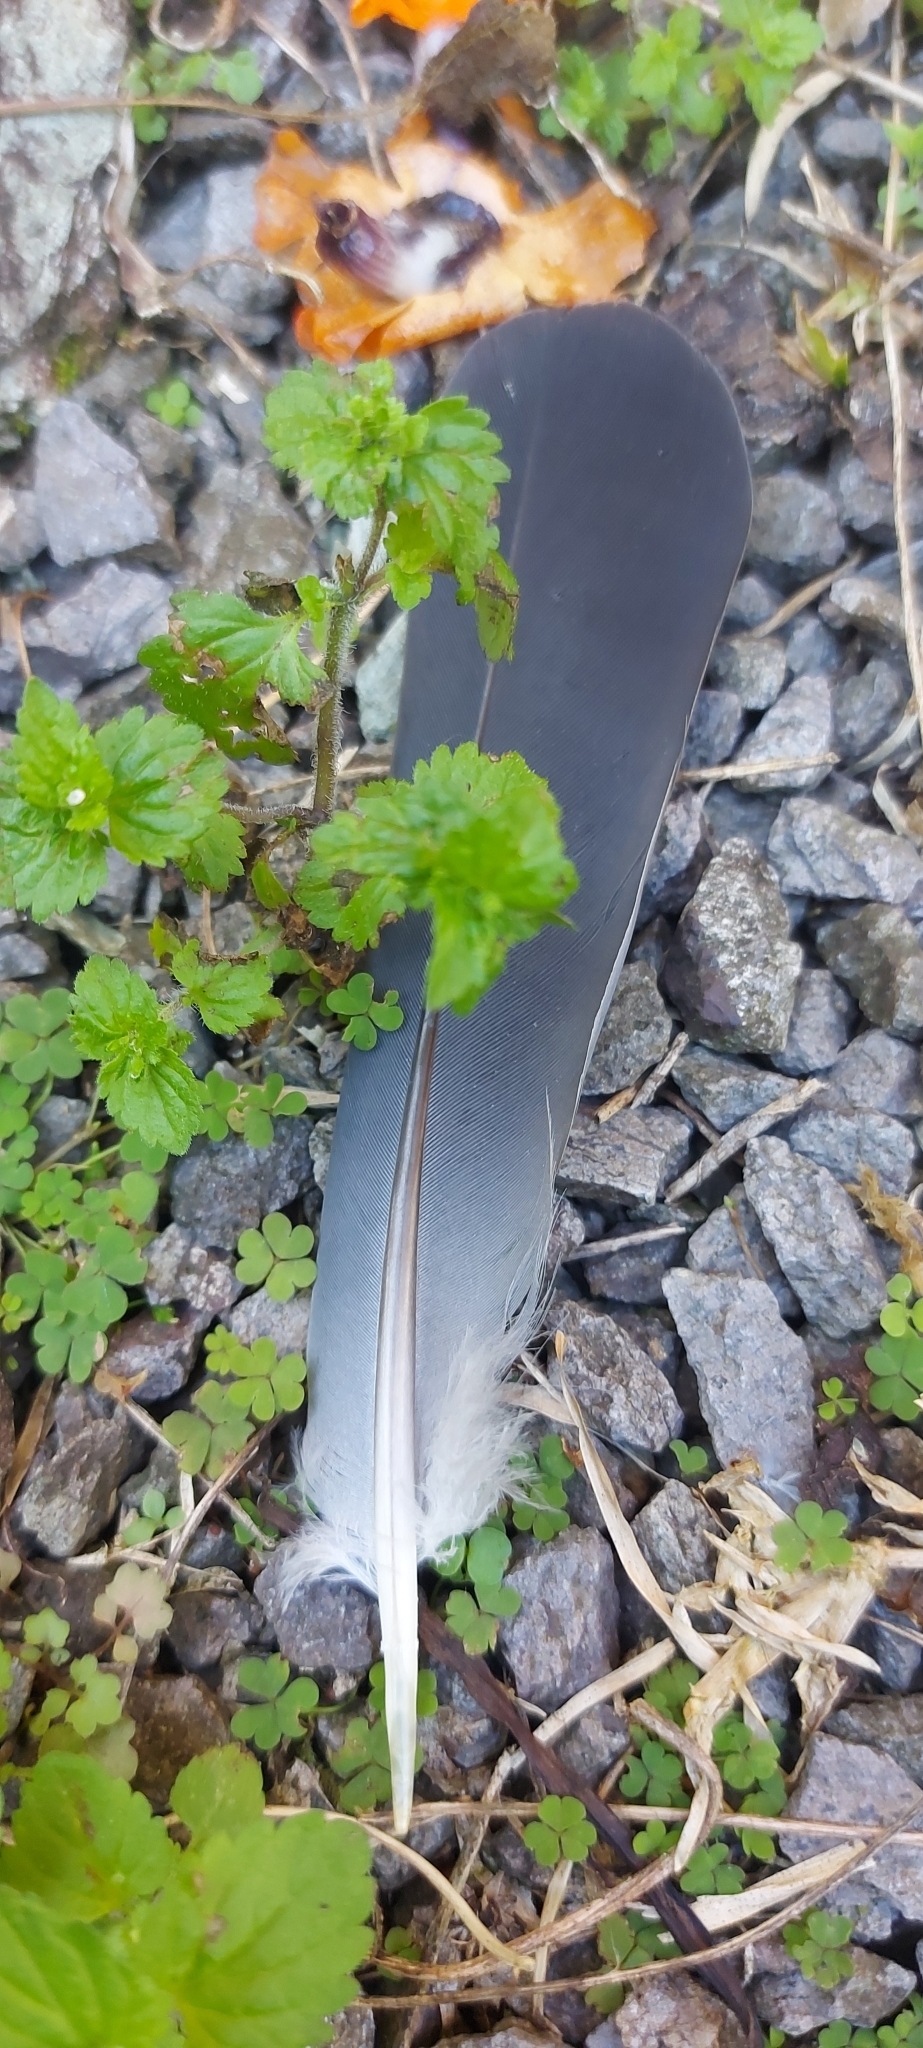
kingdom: Animalia
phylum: Chordata
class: Aves
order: Columbiformes
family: Columbidae
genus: Columba
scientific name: Columba livia
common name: Rock pigeon
